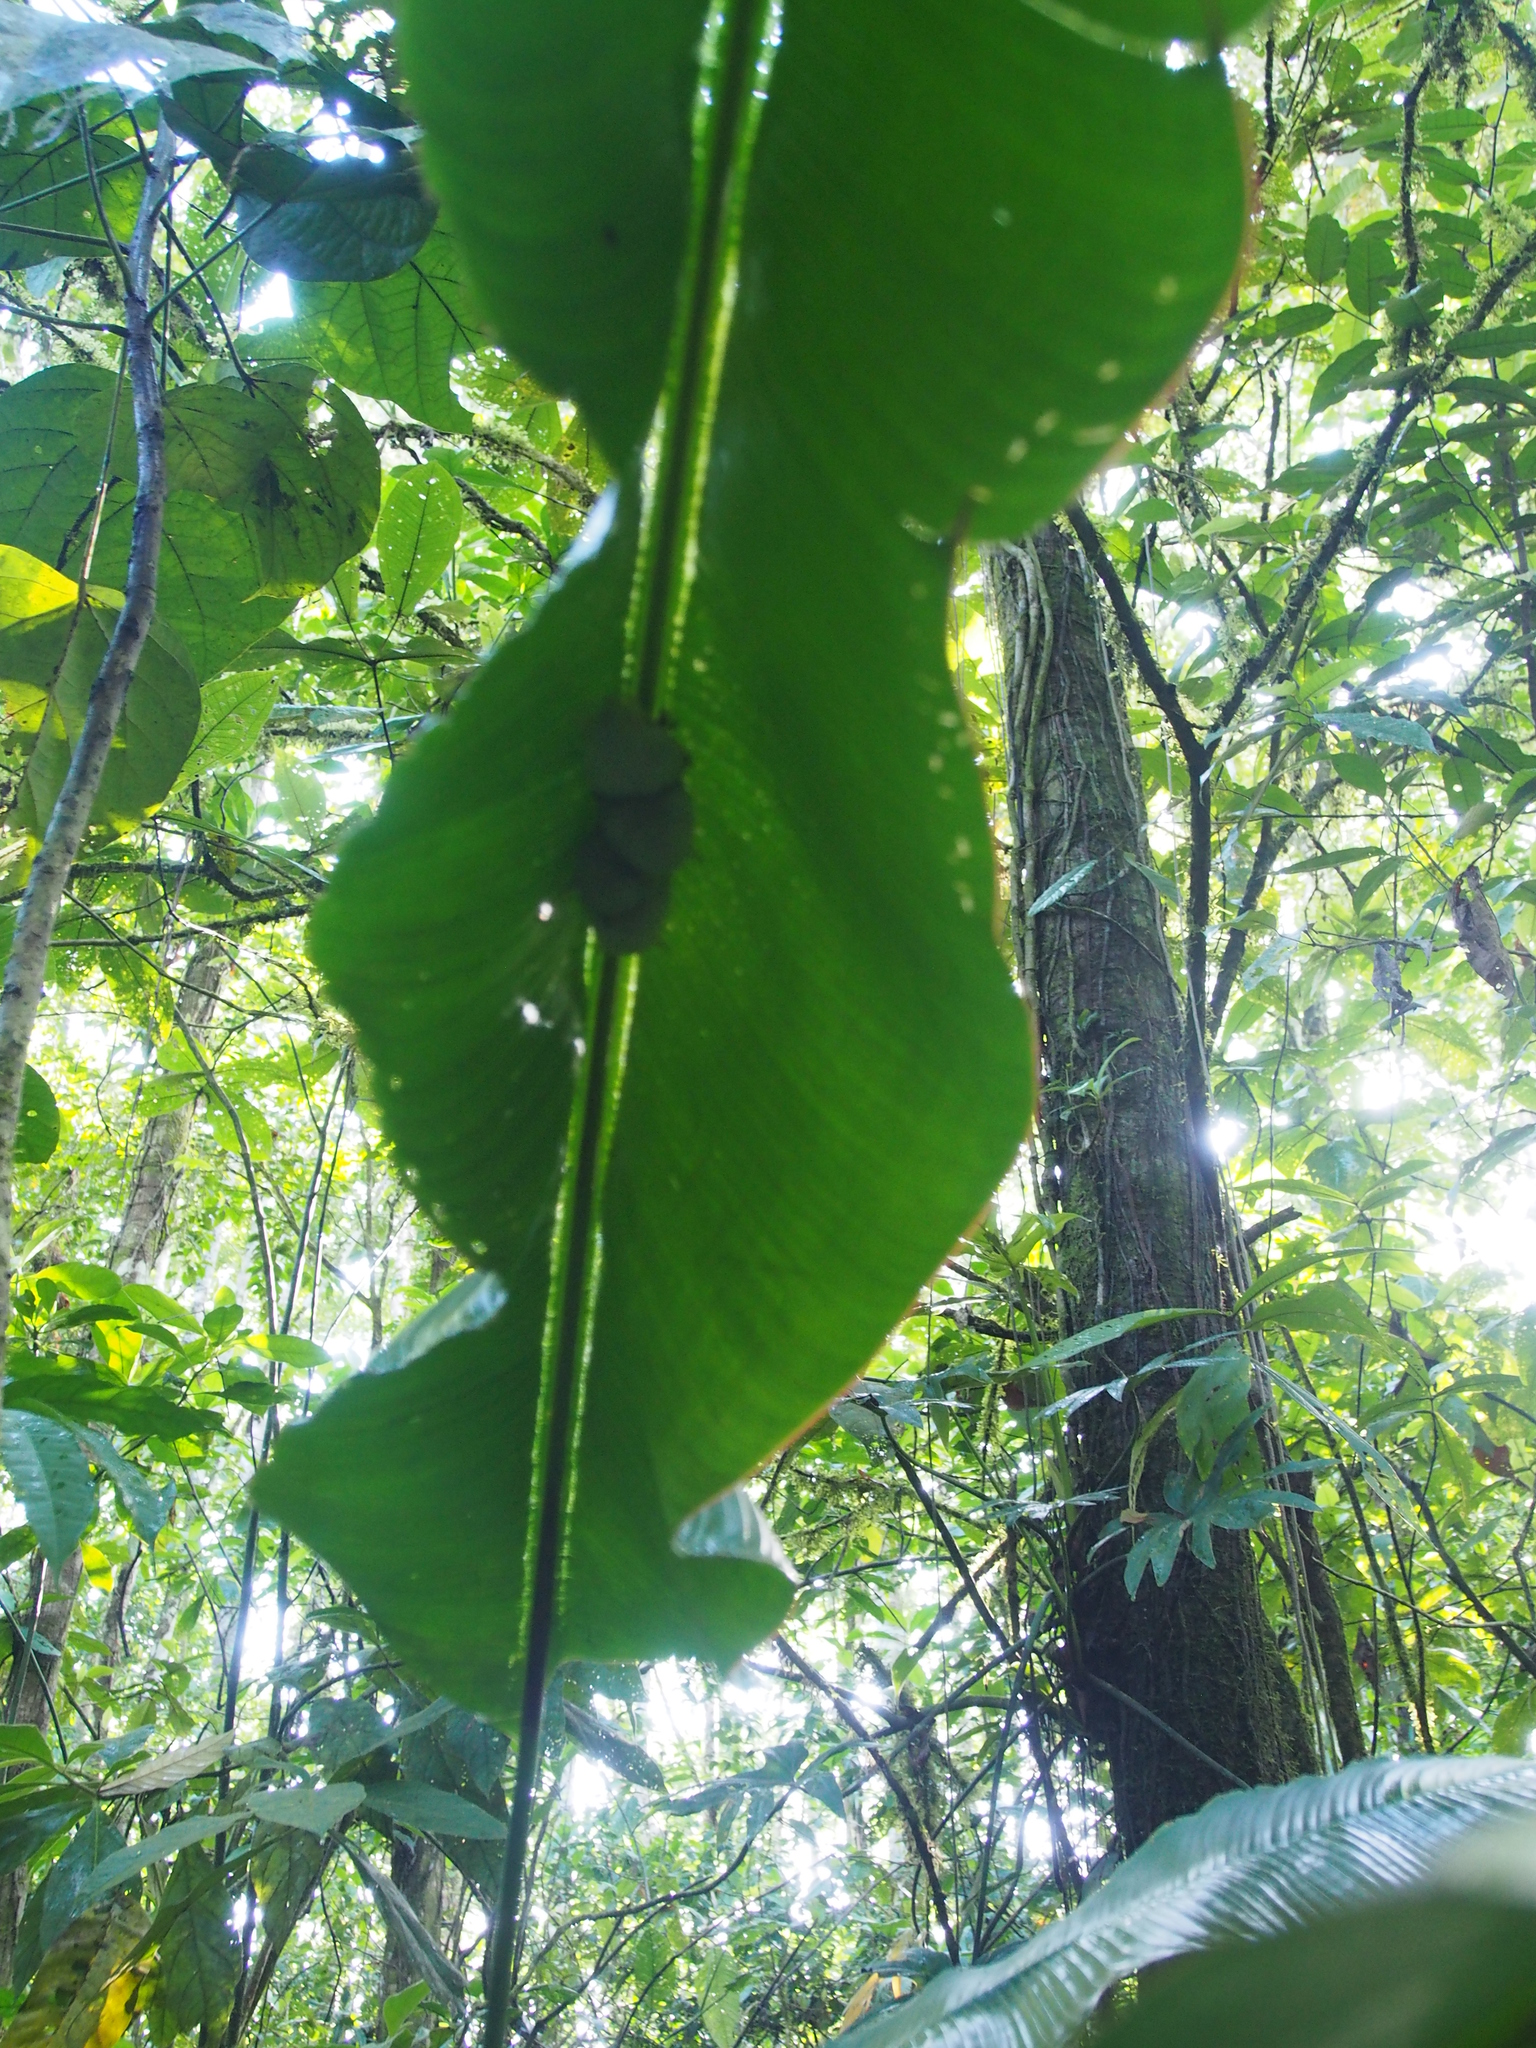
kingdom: Animalia
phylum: Chordata
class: Mammalia
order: Chiroptera
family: Phyllostomidae
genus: Ectophylla
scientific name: Ectophylla alba
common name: Honduran white bat
